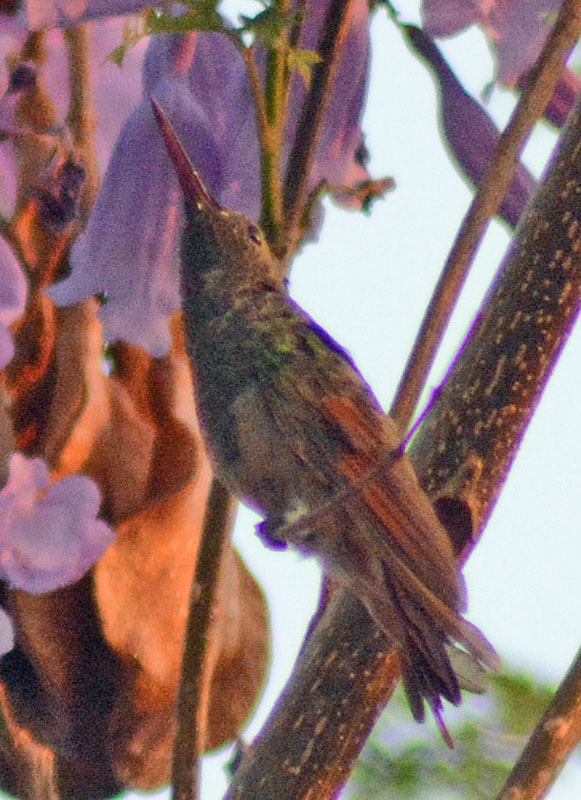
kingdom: Animalia
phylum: Chordata
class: Aves
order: Apodiformes
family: Trochilidae
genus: Saucerottia
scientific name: Saucerottia beryllina
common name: Berylline hummingbird
